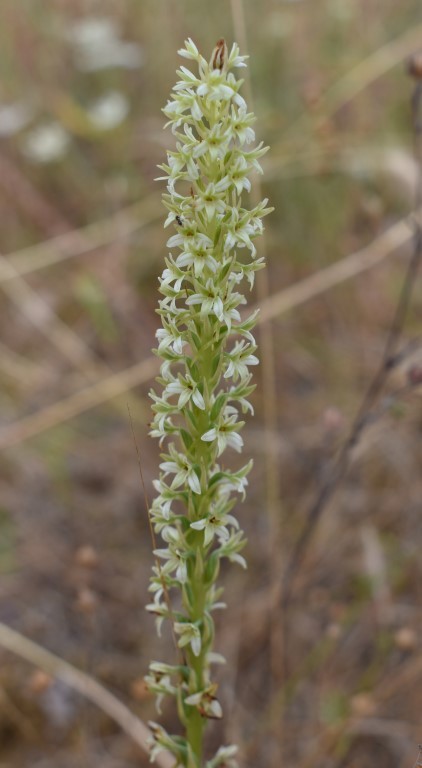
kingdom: Plantae
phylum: Tracheophyta
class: Liliopsida
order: Asparagales
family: Orchidaceae
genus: Platanthera
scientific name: Platanthera elegans
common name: Coast piperia
